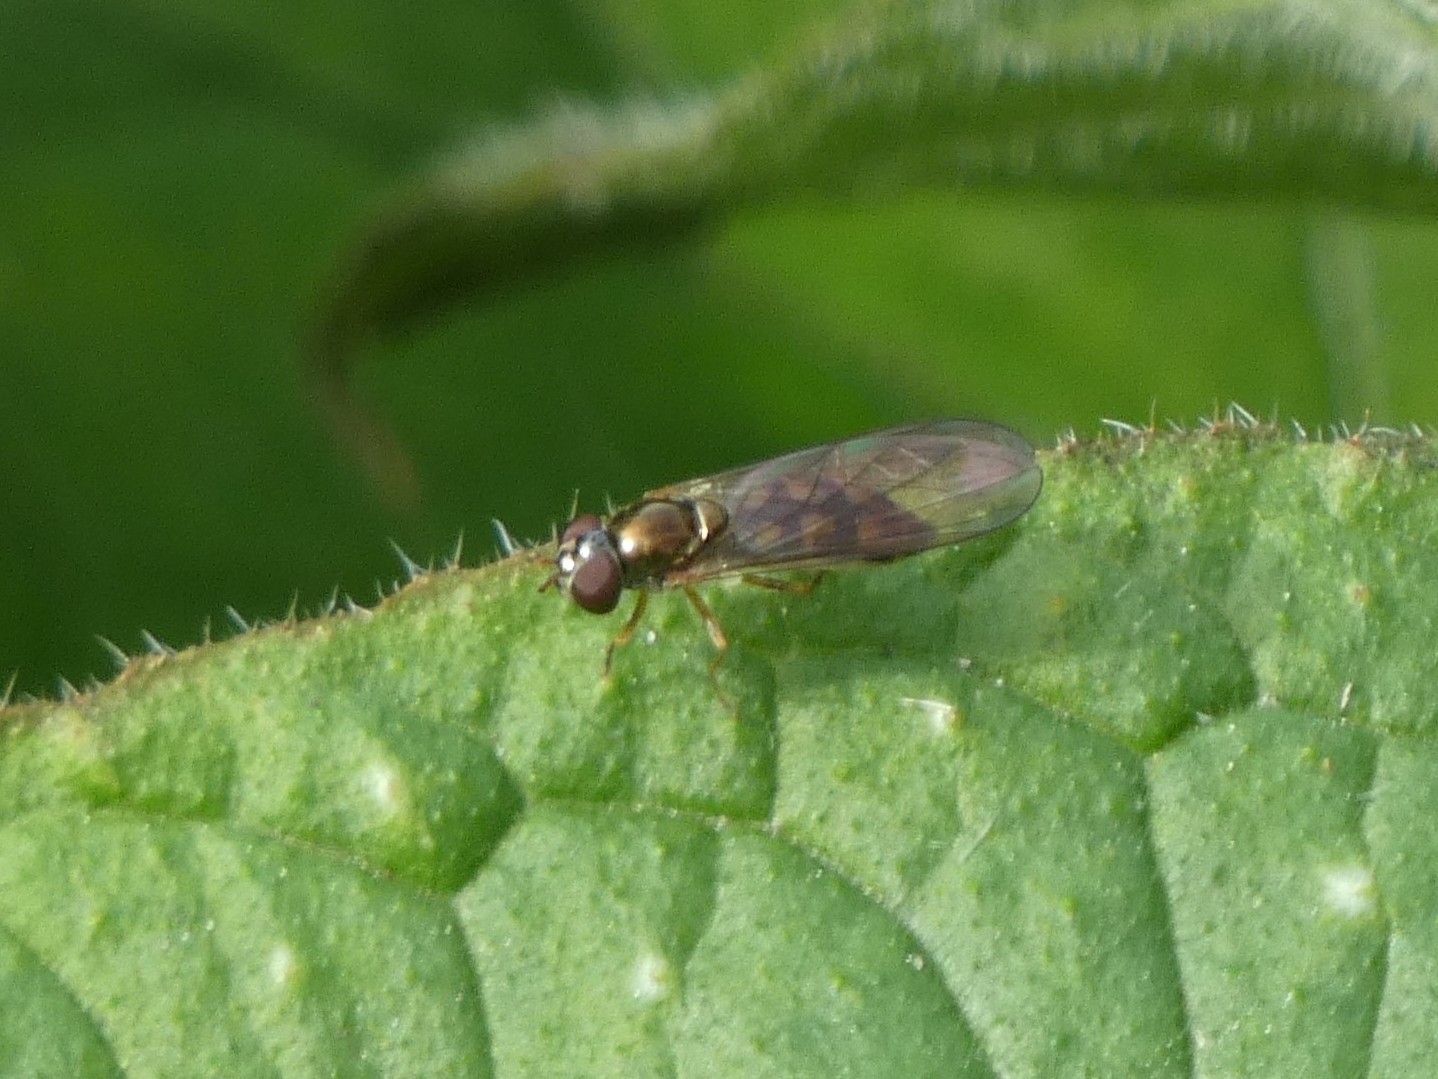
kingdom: Animalia
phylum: Arthropoda
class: Insecta
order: Diptera
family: Syrphidae
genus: Melanostoma
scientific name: Melanostoma scalare
